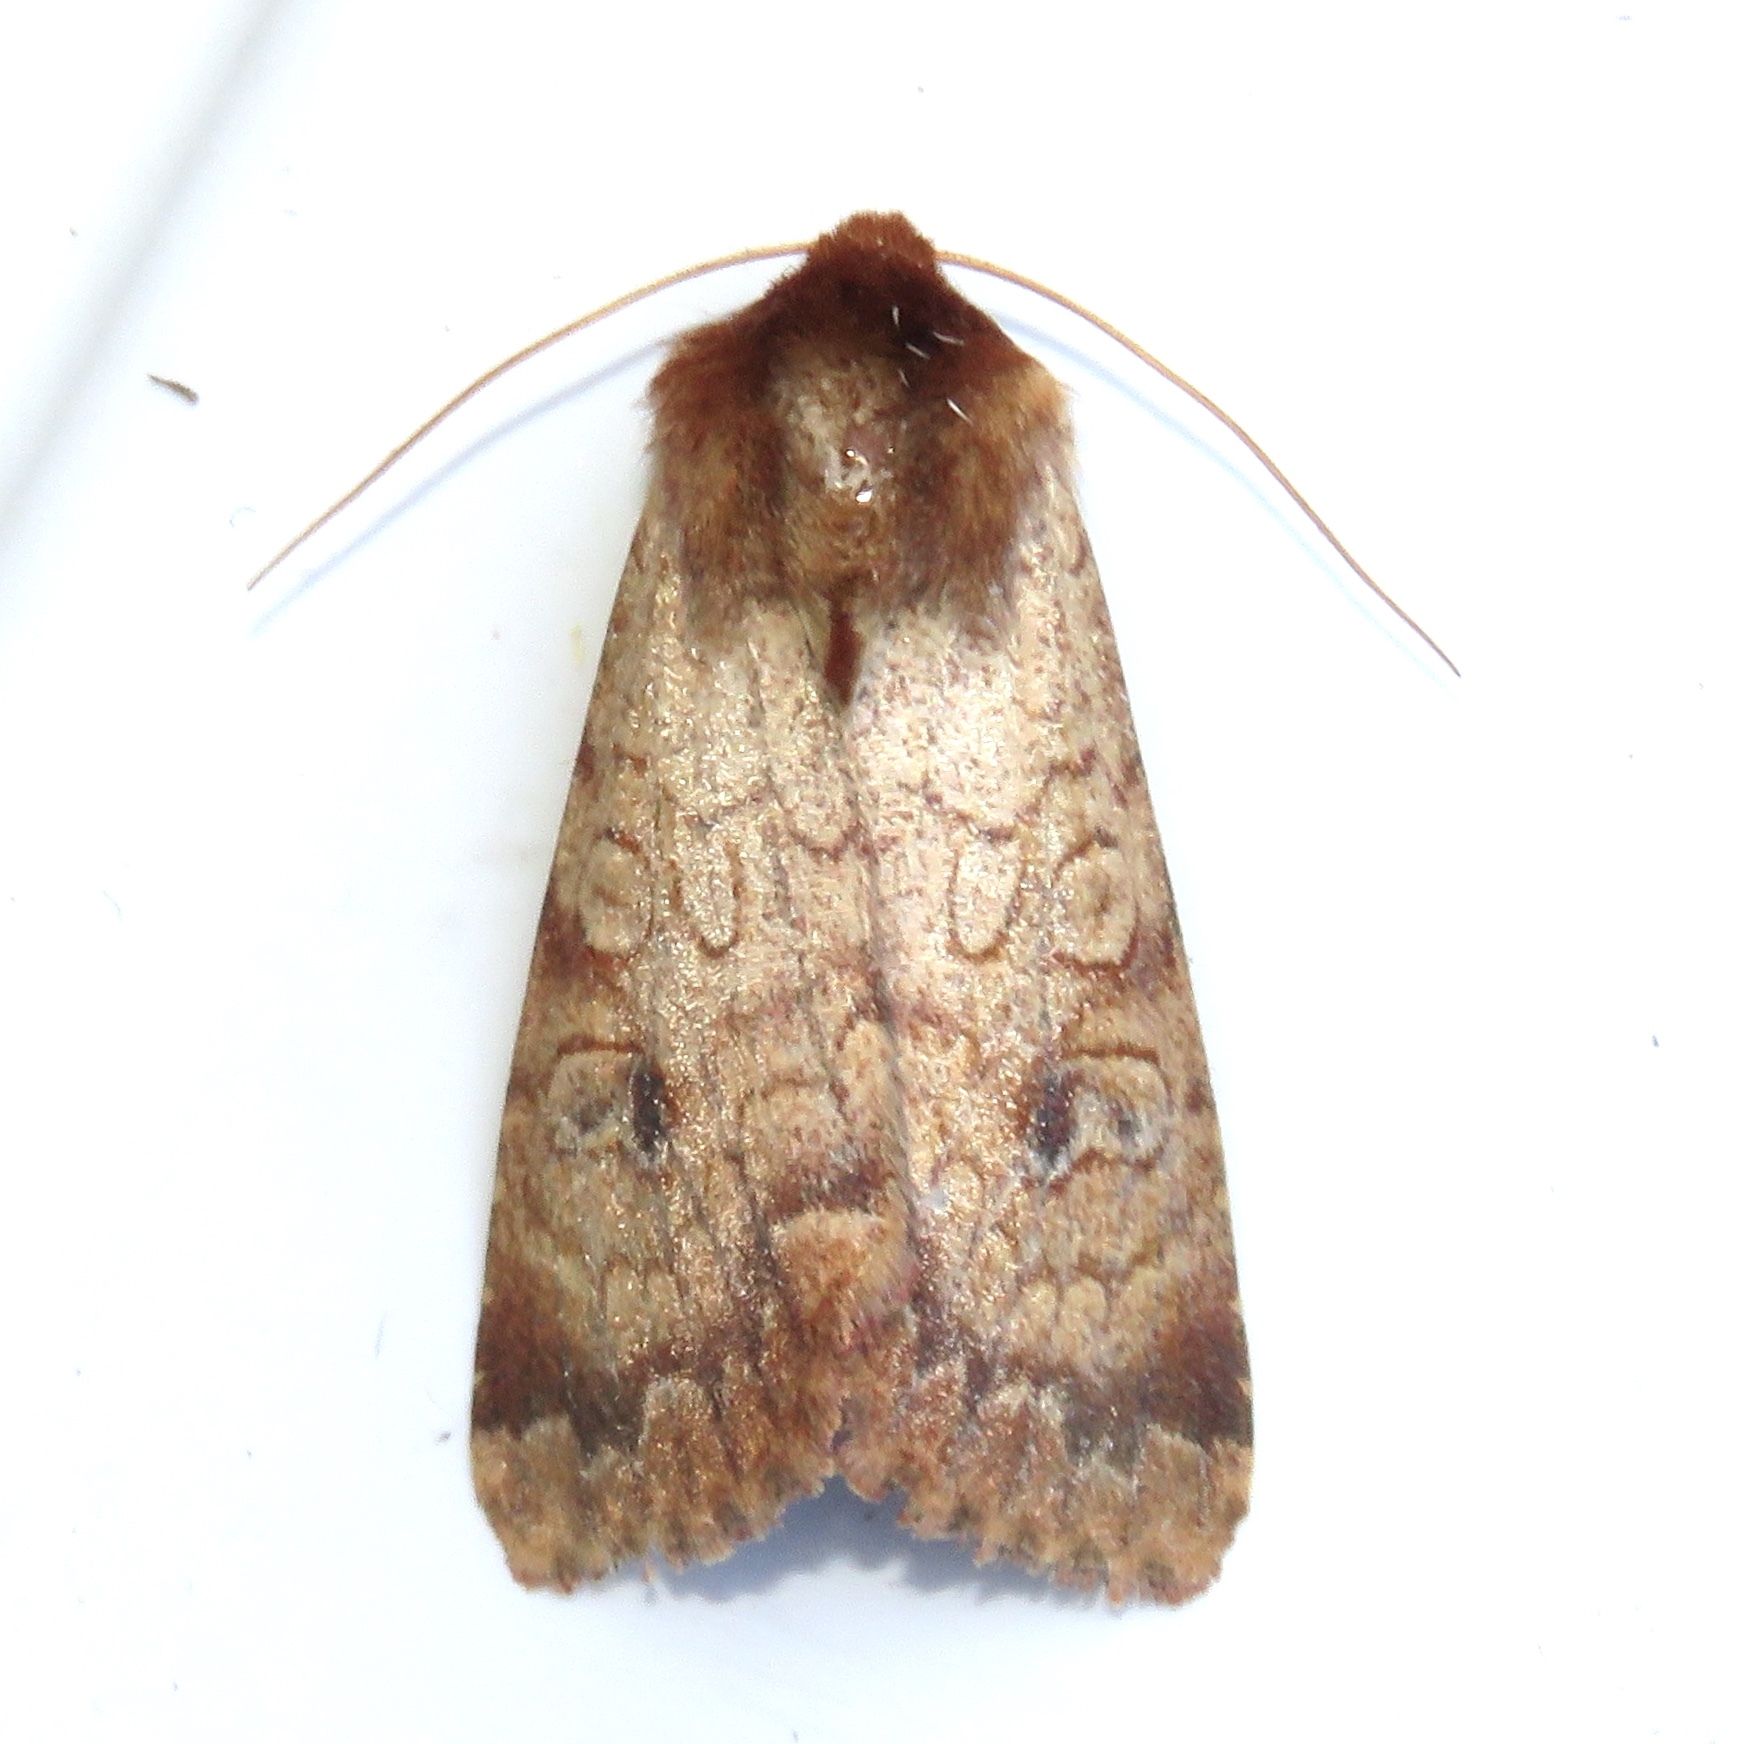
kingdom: Animalia
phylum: Arthropoda
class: Insecta
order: Lepidoptera
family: Noctuidae
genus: Sideridis
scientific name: Sideridis rosea
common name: Rosewing moth
